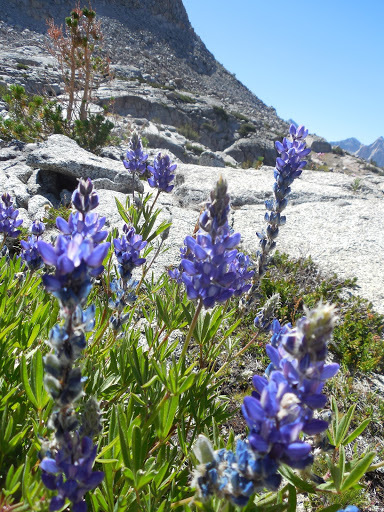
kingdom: Plantae
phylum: Tracheophyta
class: Magnoliopsida
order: Fabales
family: Fabaceae
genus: Lupinus
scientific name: Lupinus covillei
